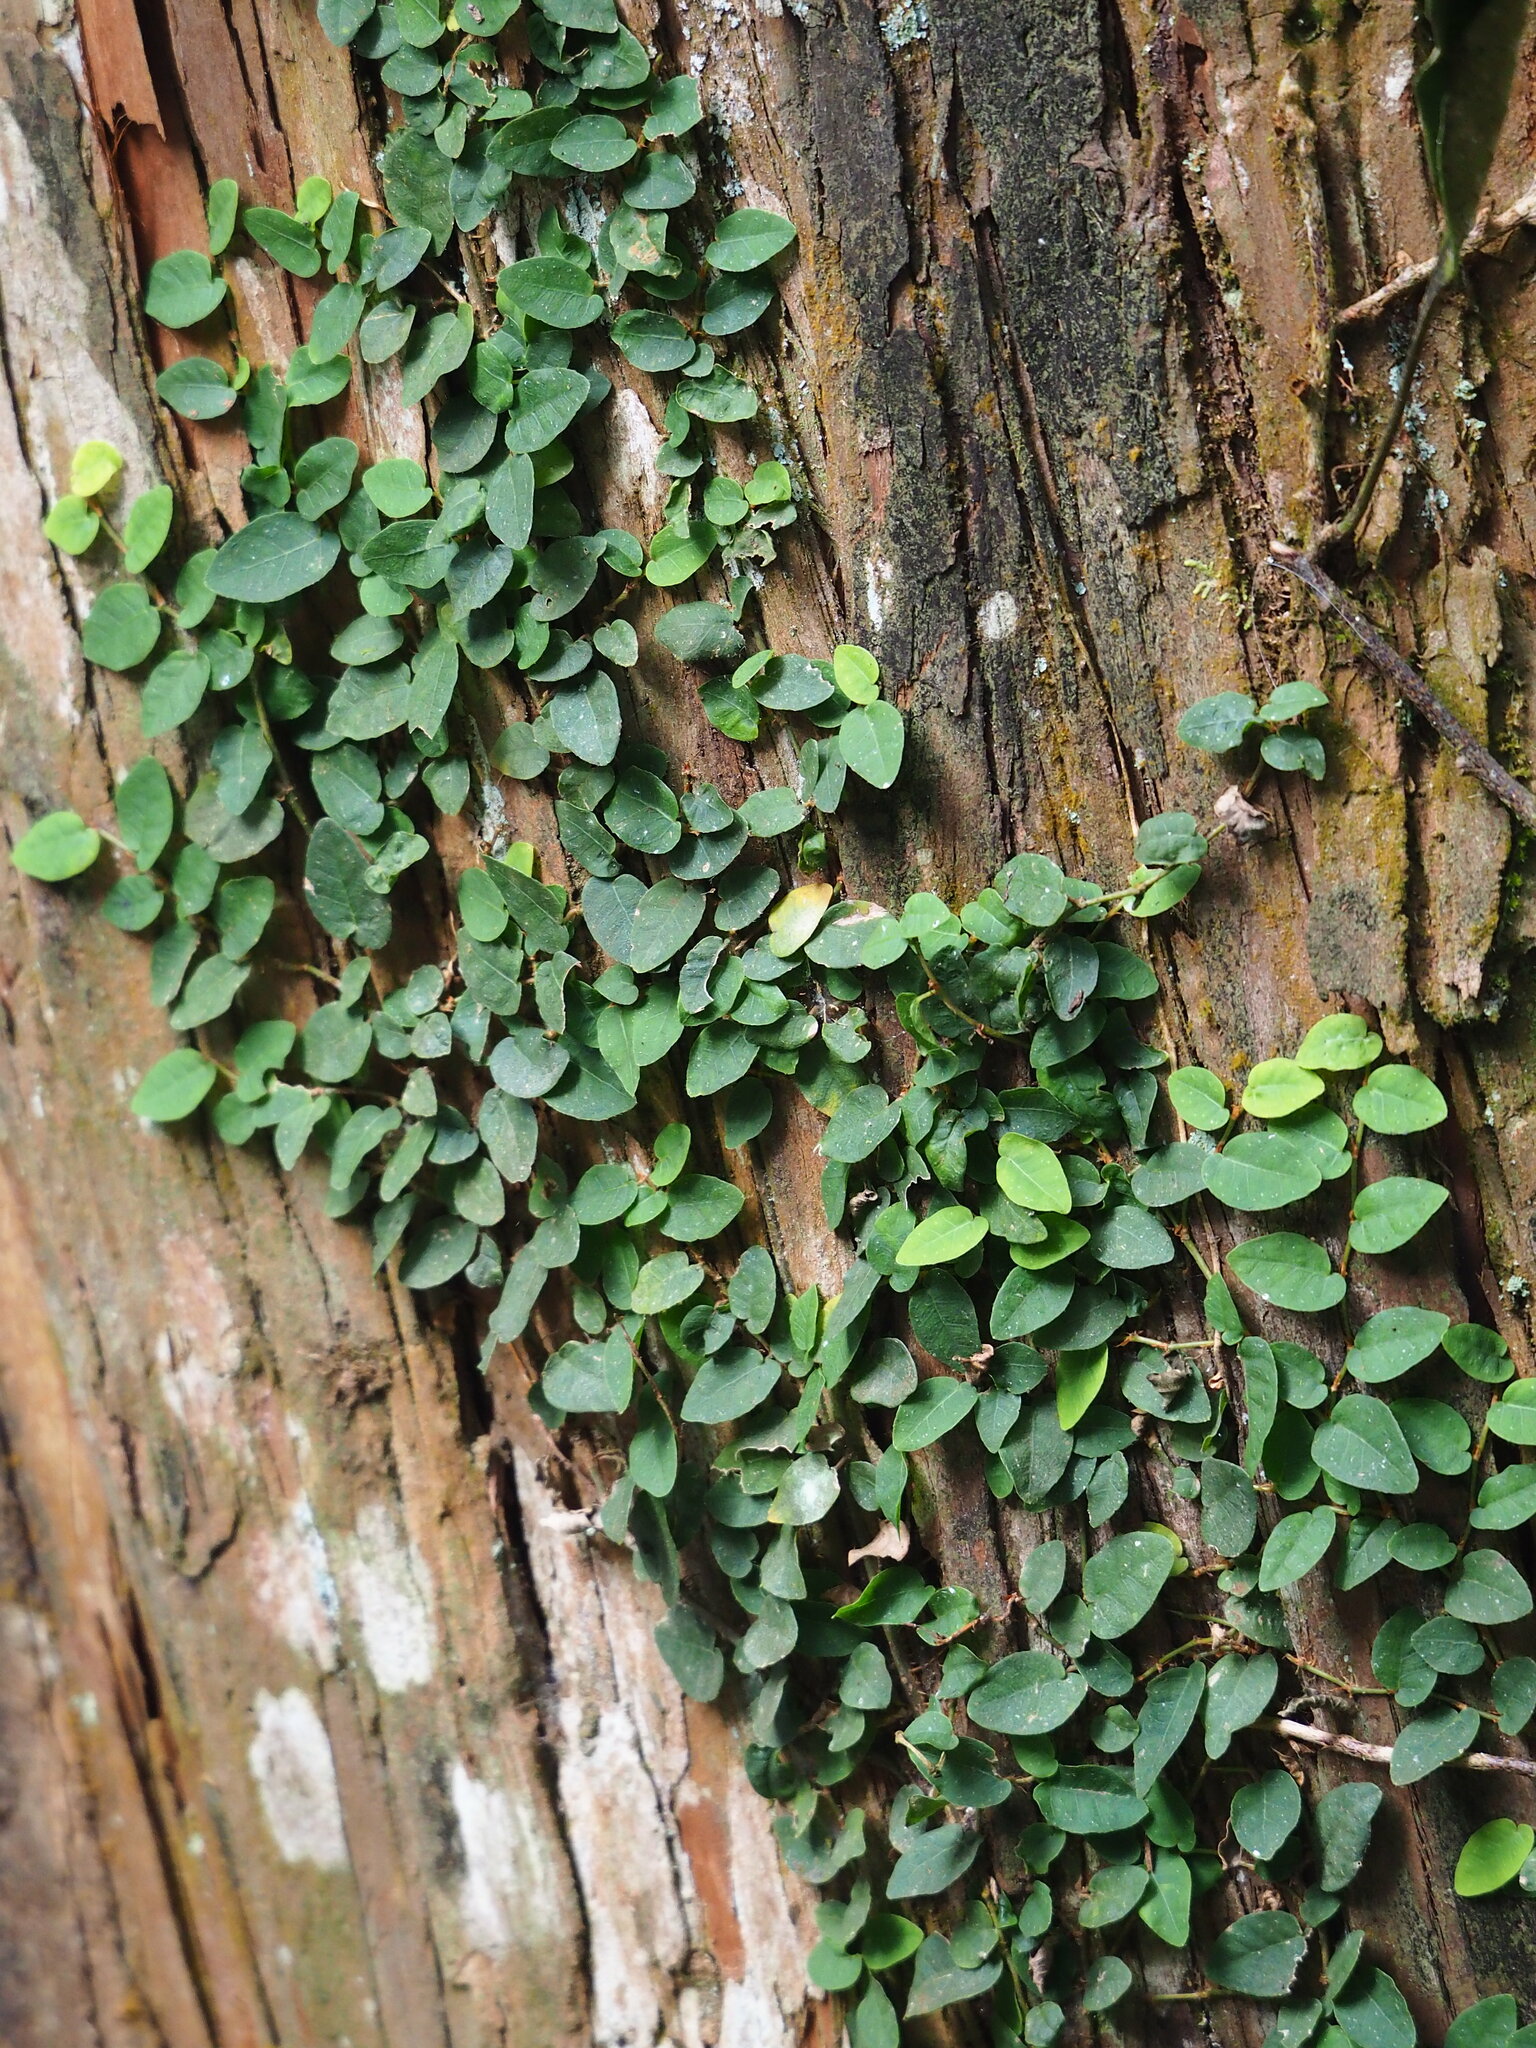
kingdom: Plantae
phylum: Tracheophyta
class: Magnoliopsida
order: Rosales
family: Moraceae
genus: Ficus
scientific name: Ficus pumila
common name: Climbingfig
